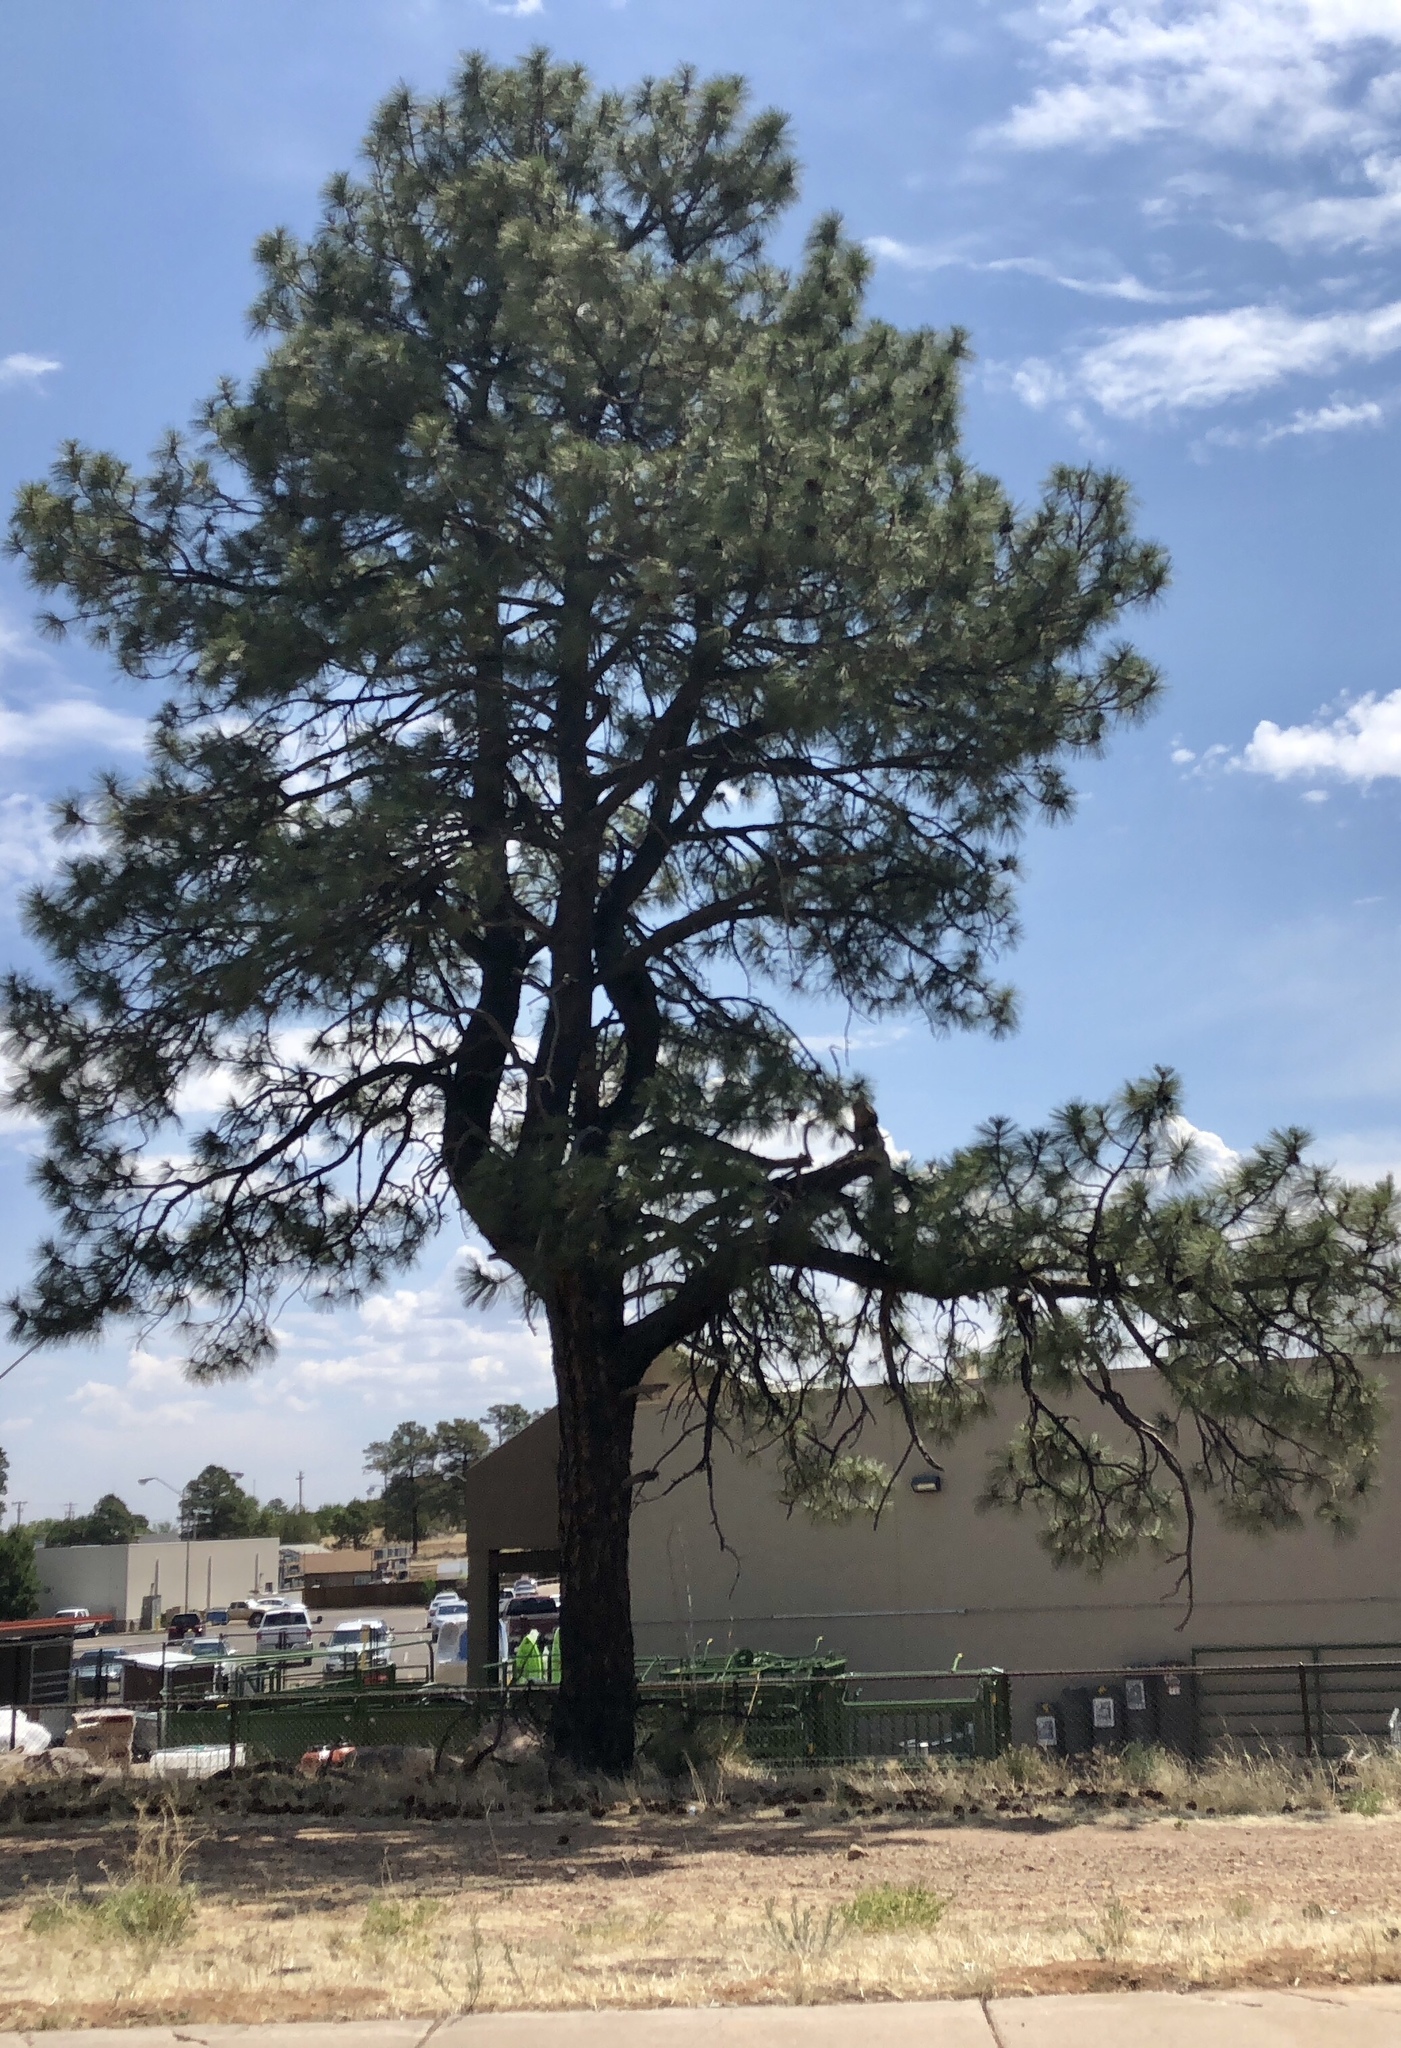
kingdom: Plantae
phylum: Tracheophyta
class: Pinopsida
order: Pinales
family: Pinaceae
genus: Pinus
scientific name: Pinus ponderosa
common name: Western yellow-pine
